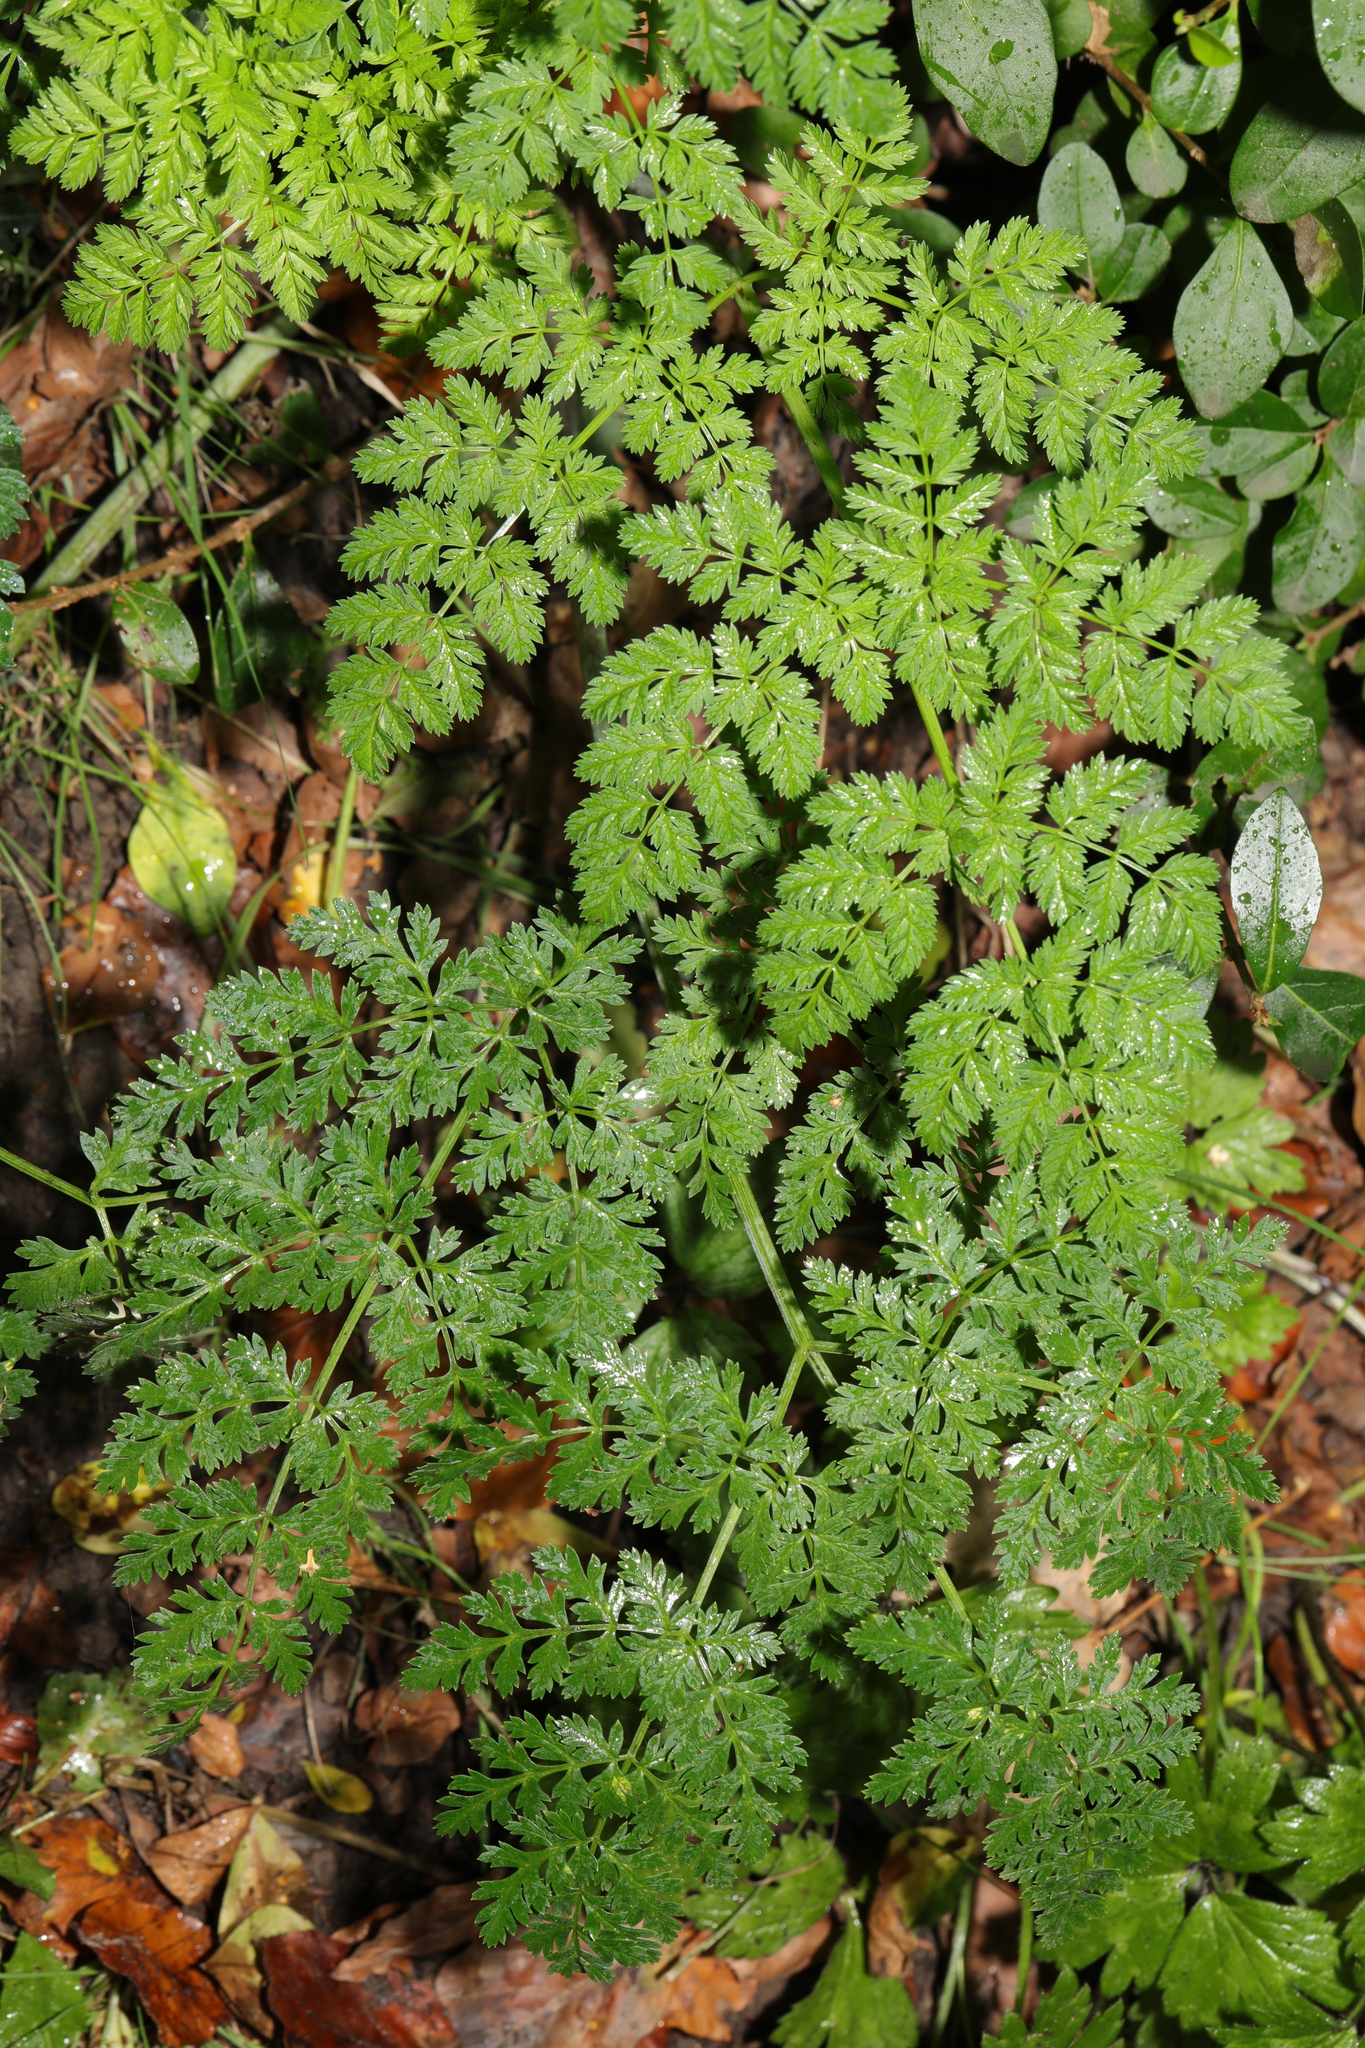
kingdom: Plantae
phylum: Tracheophyta
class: Magnoliopsida
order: Apiales
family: Apiaceae
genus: Anthriscus
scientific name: Anthriscus sylvestris
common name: Cow parsley
